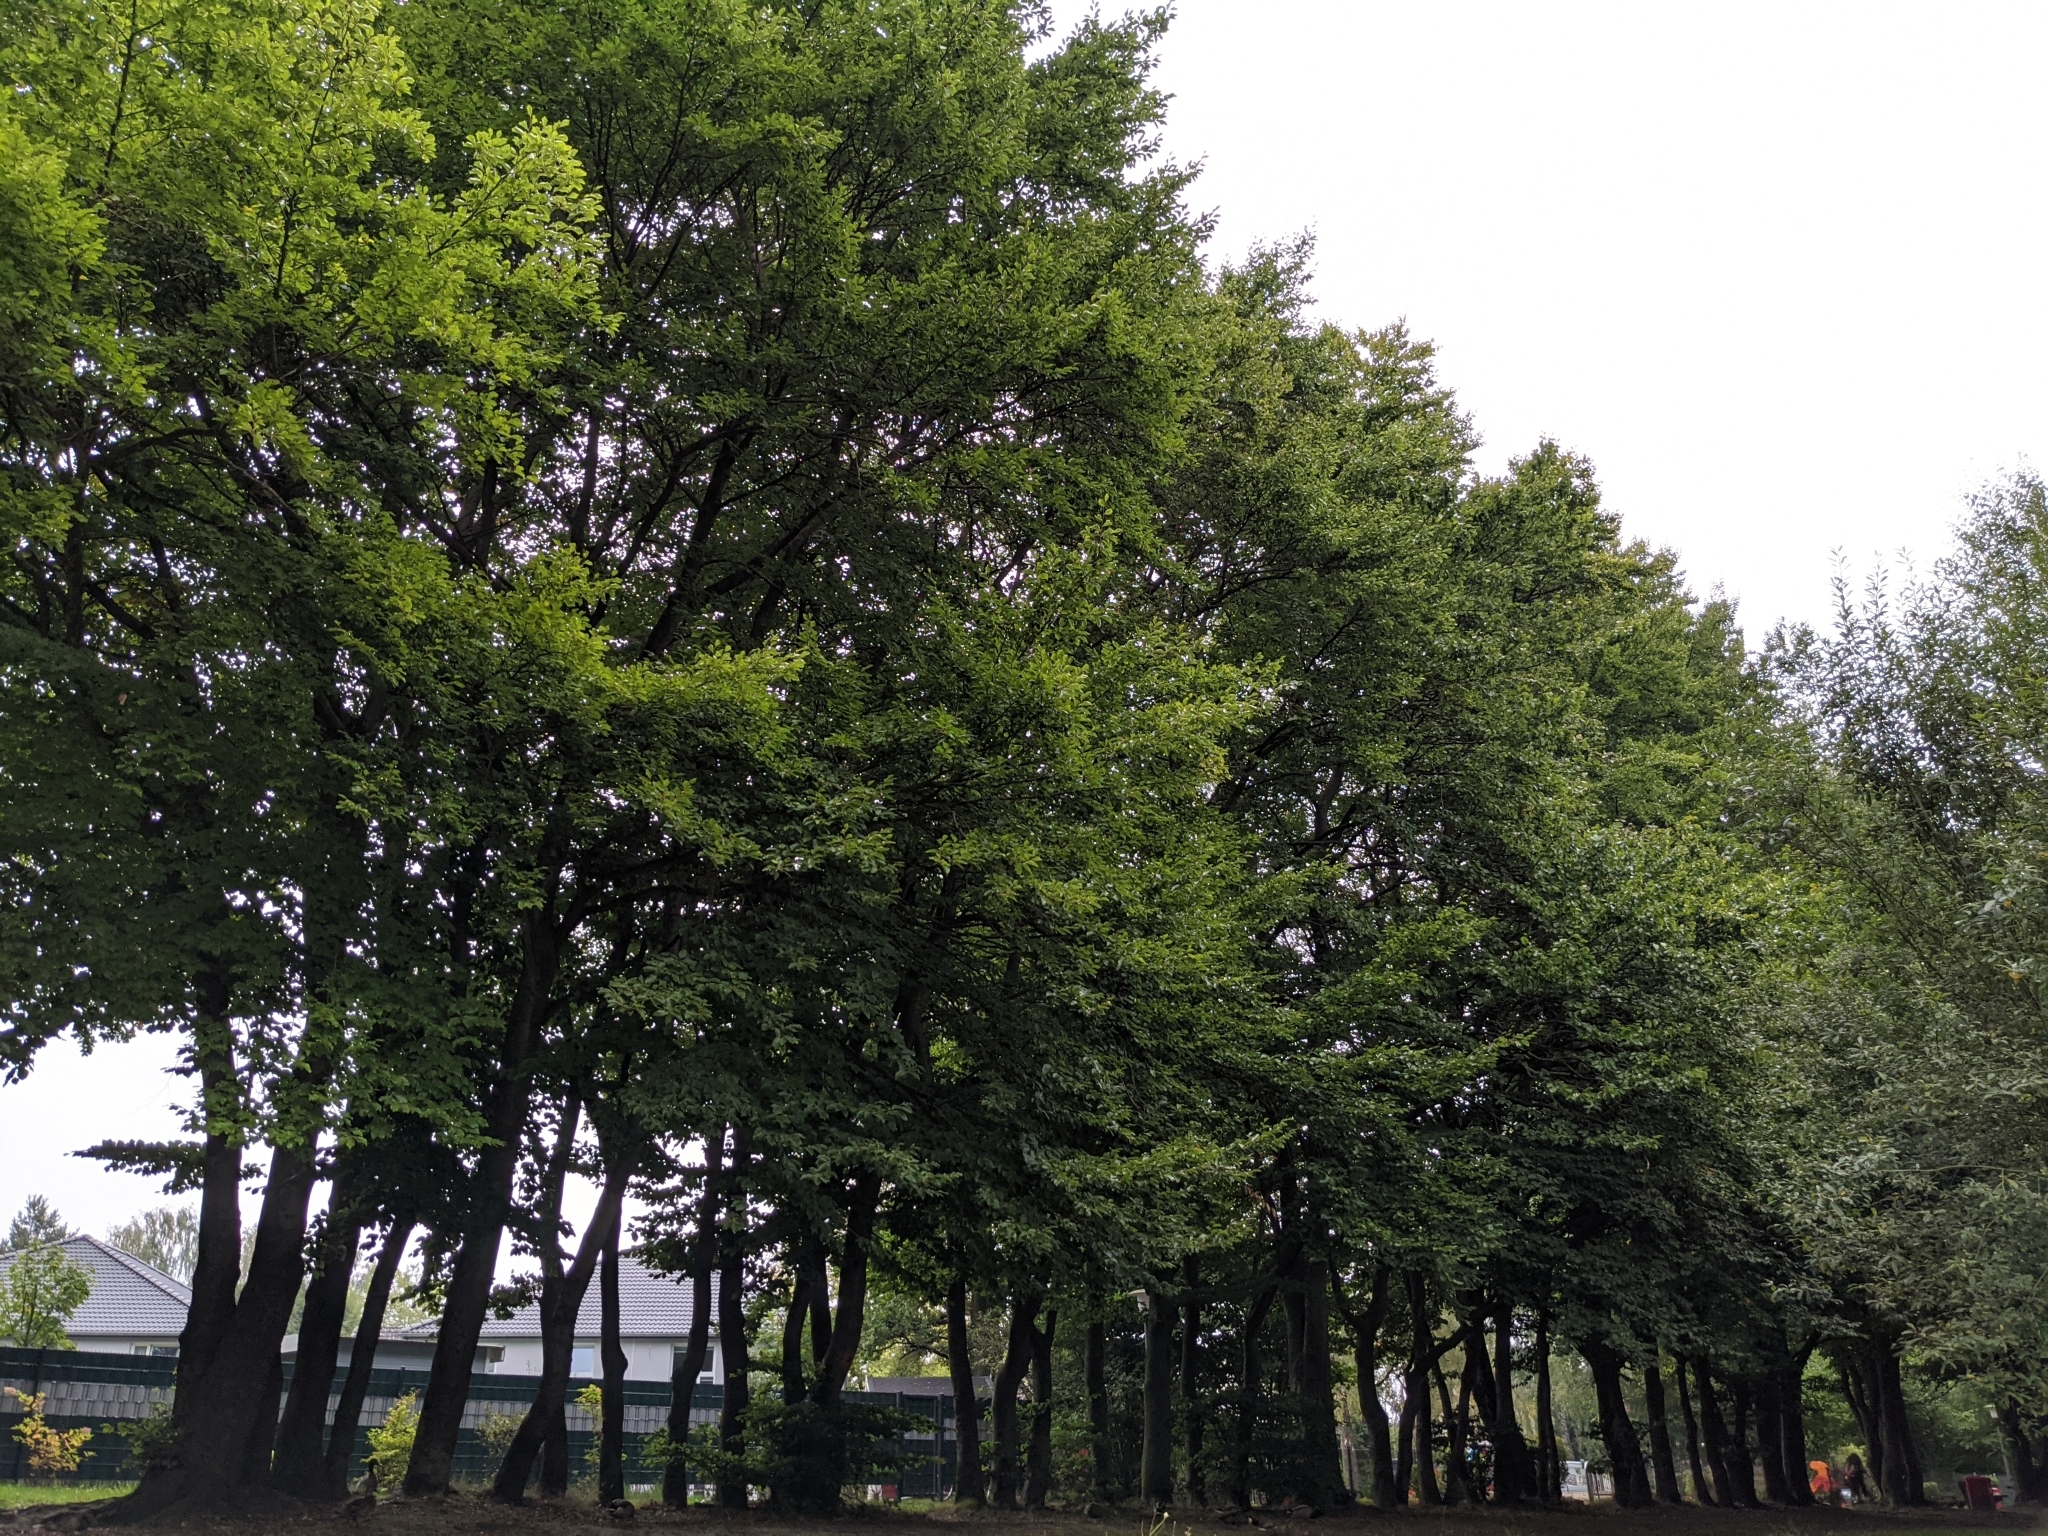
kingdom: Plantae
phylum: Tracheophyta
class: Magnoliopsida
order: Fagales
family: Fagaceae
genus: Fagus
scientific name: Fagus sylvatica
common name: Beech
